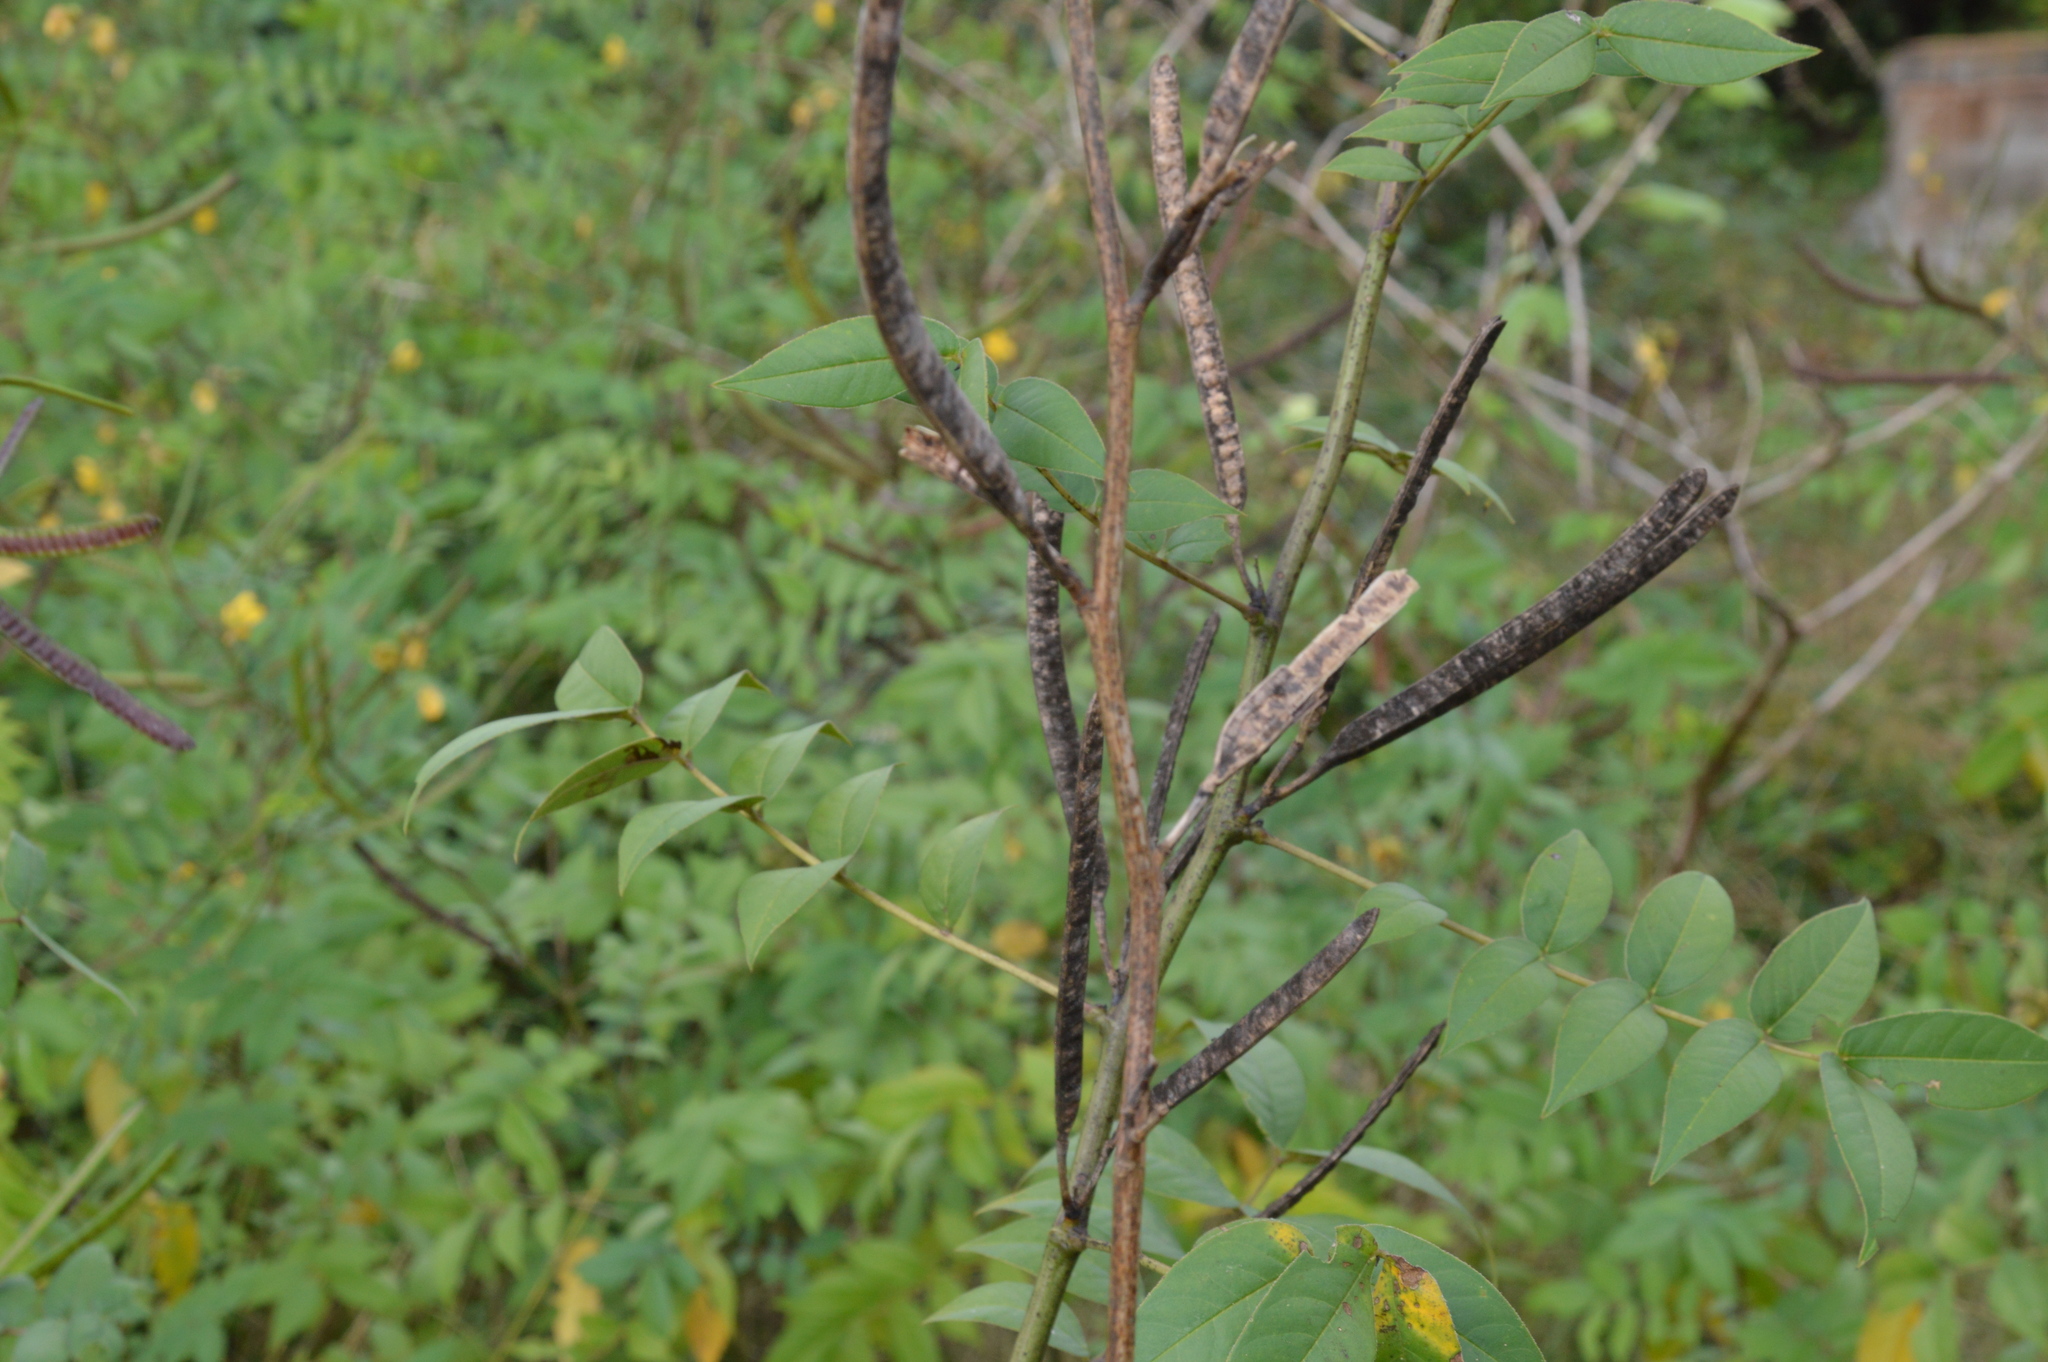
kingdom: Plantae
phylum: Tracheophyta
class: Magnoliopsida
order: Fabales
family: Fabaceae
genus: Senna
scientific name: Senna occidentalis
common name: Septicweed
